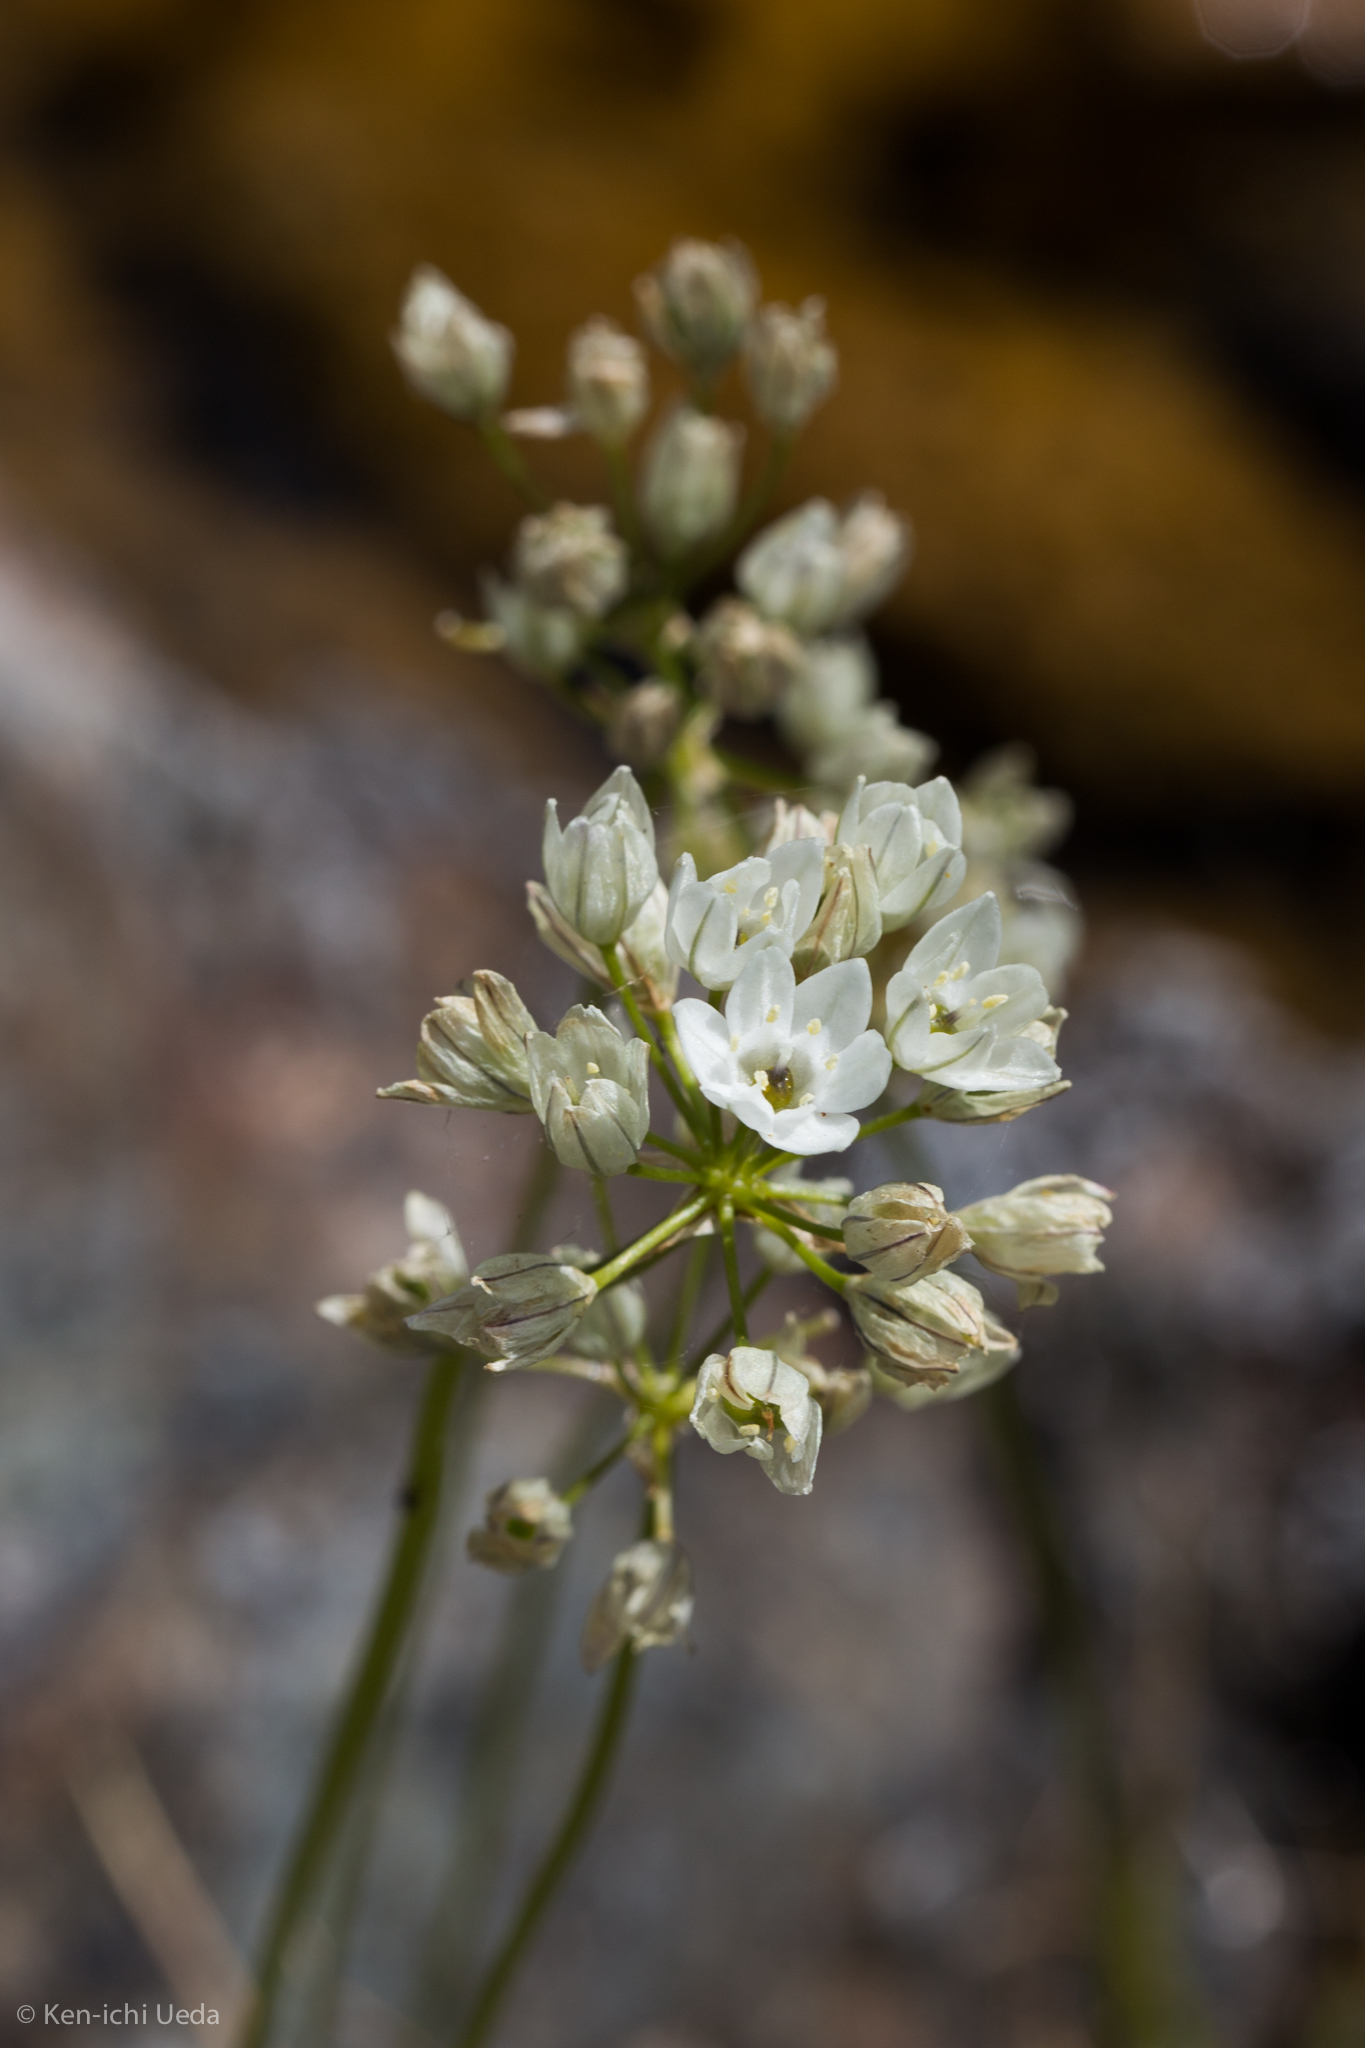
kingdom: Plantae
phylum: Tracheophyta
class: Liliopsida
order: Asparagales
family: Asparagaceae
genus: Triteleia
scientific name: Triteleia hyacinthina
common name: White brodiaea
